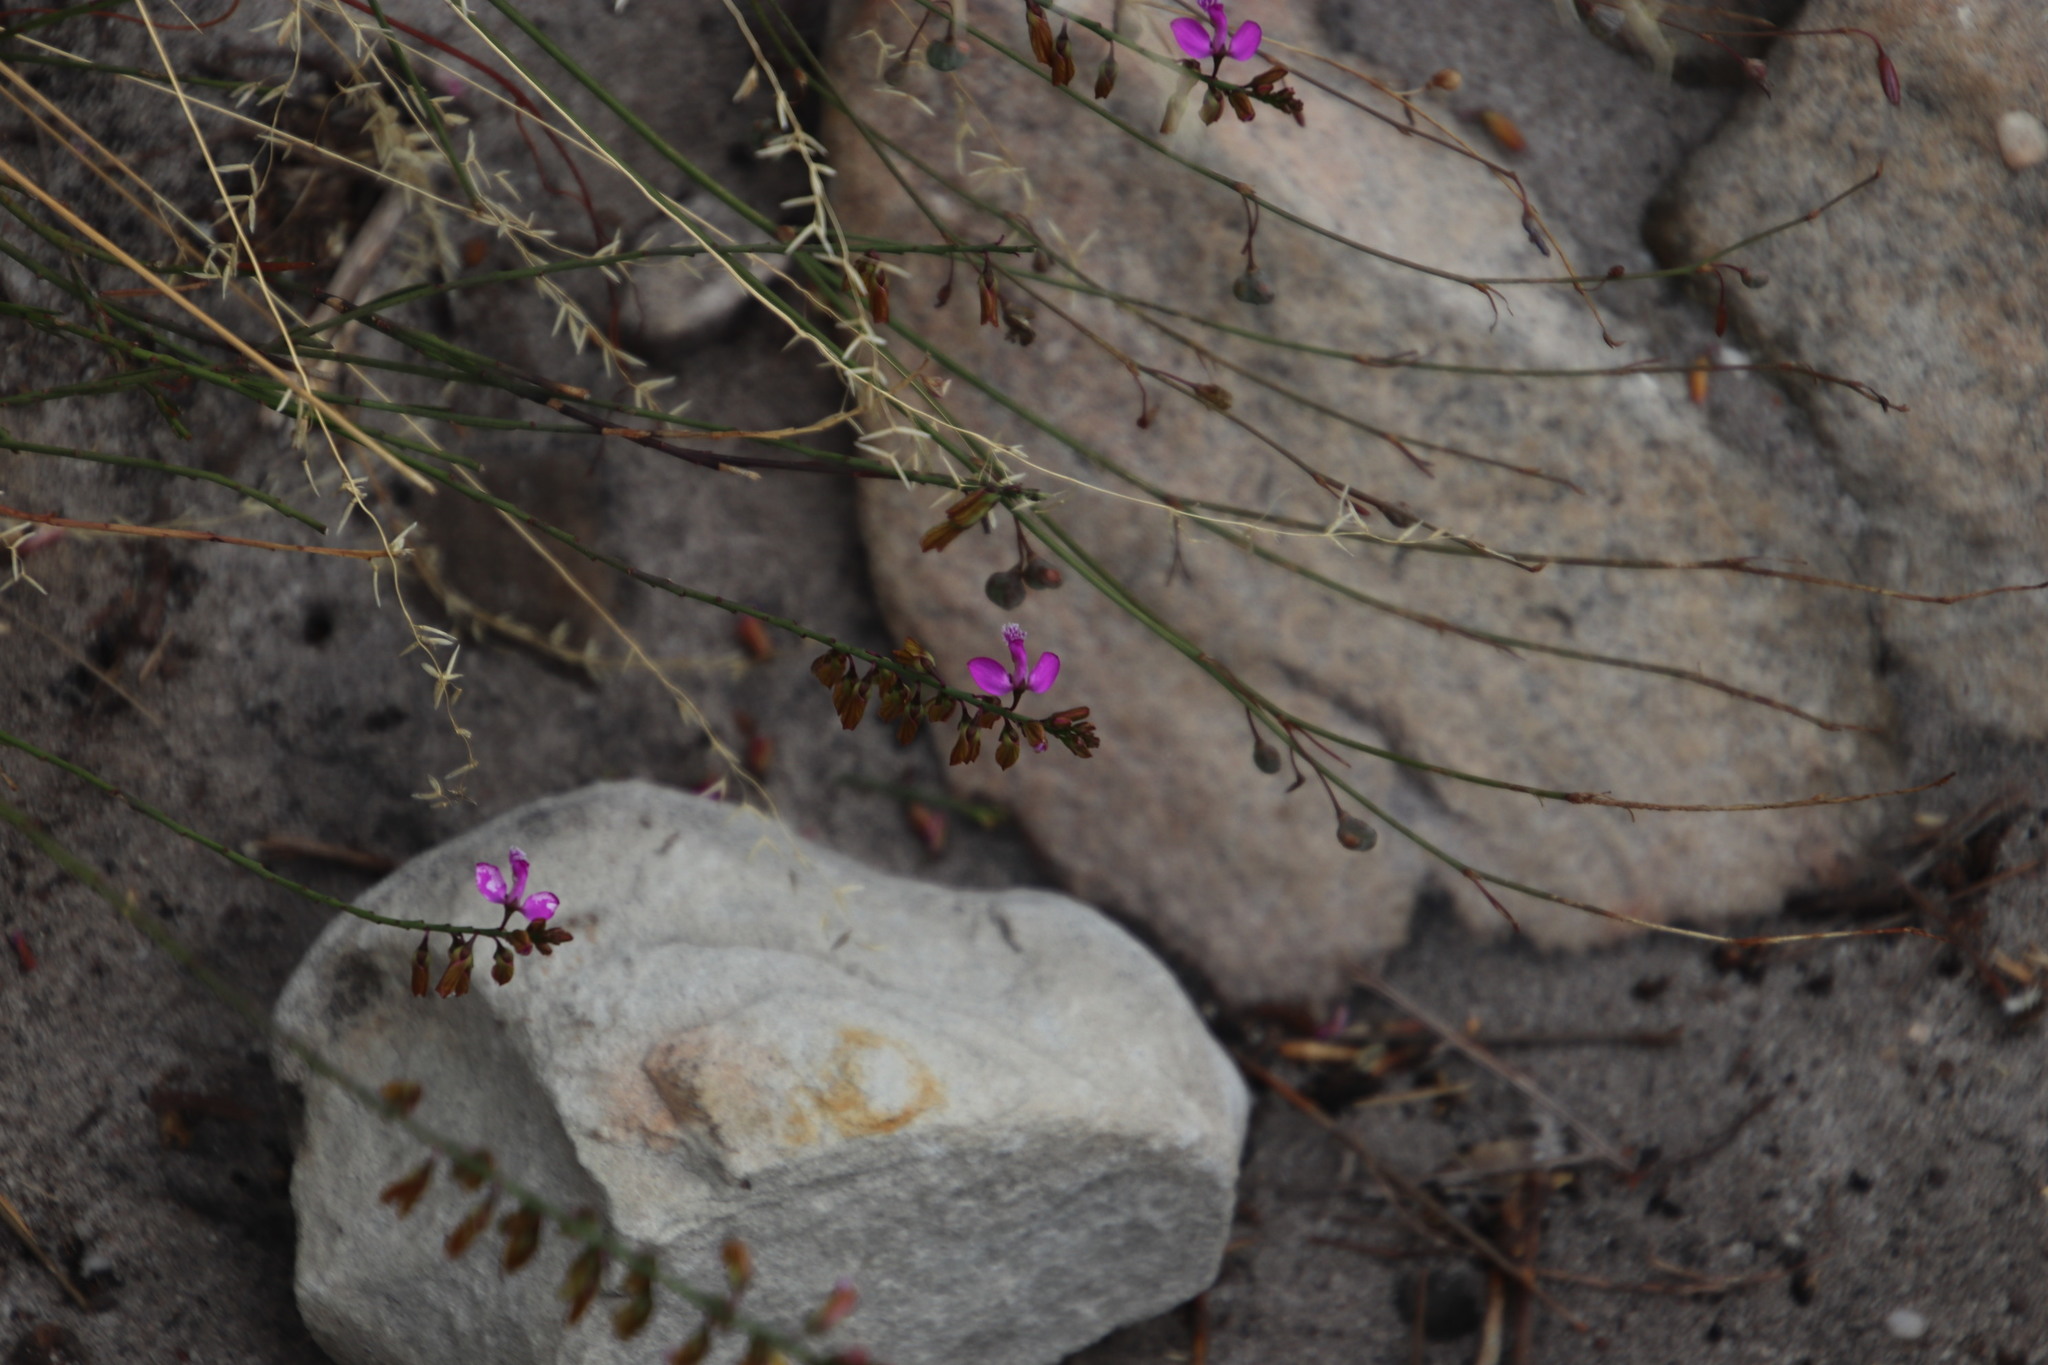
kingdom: Plantae
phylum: Tracheophyta
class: Magnoliopsida
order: Fabales
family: Polygalaceae
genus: Polygala
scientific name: Polygala garcini
